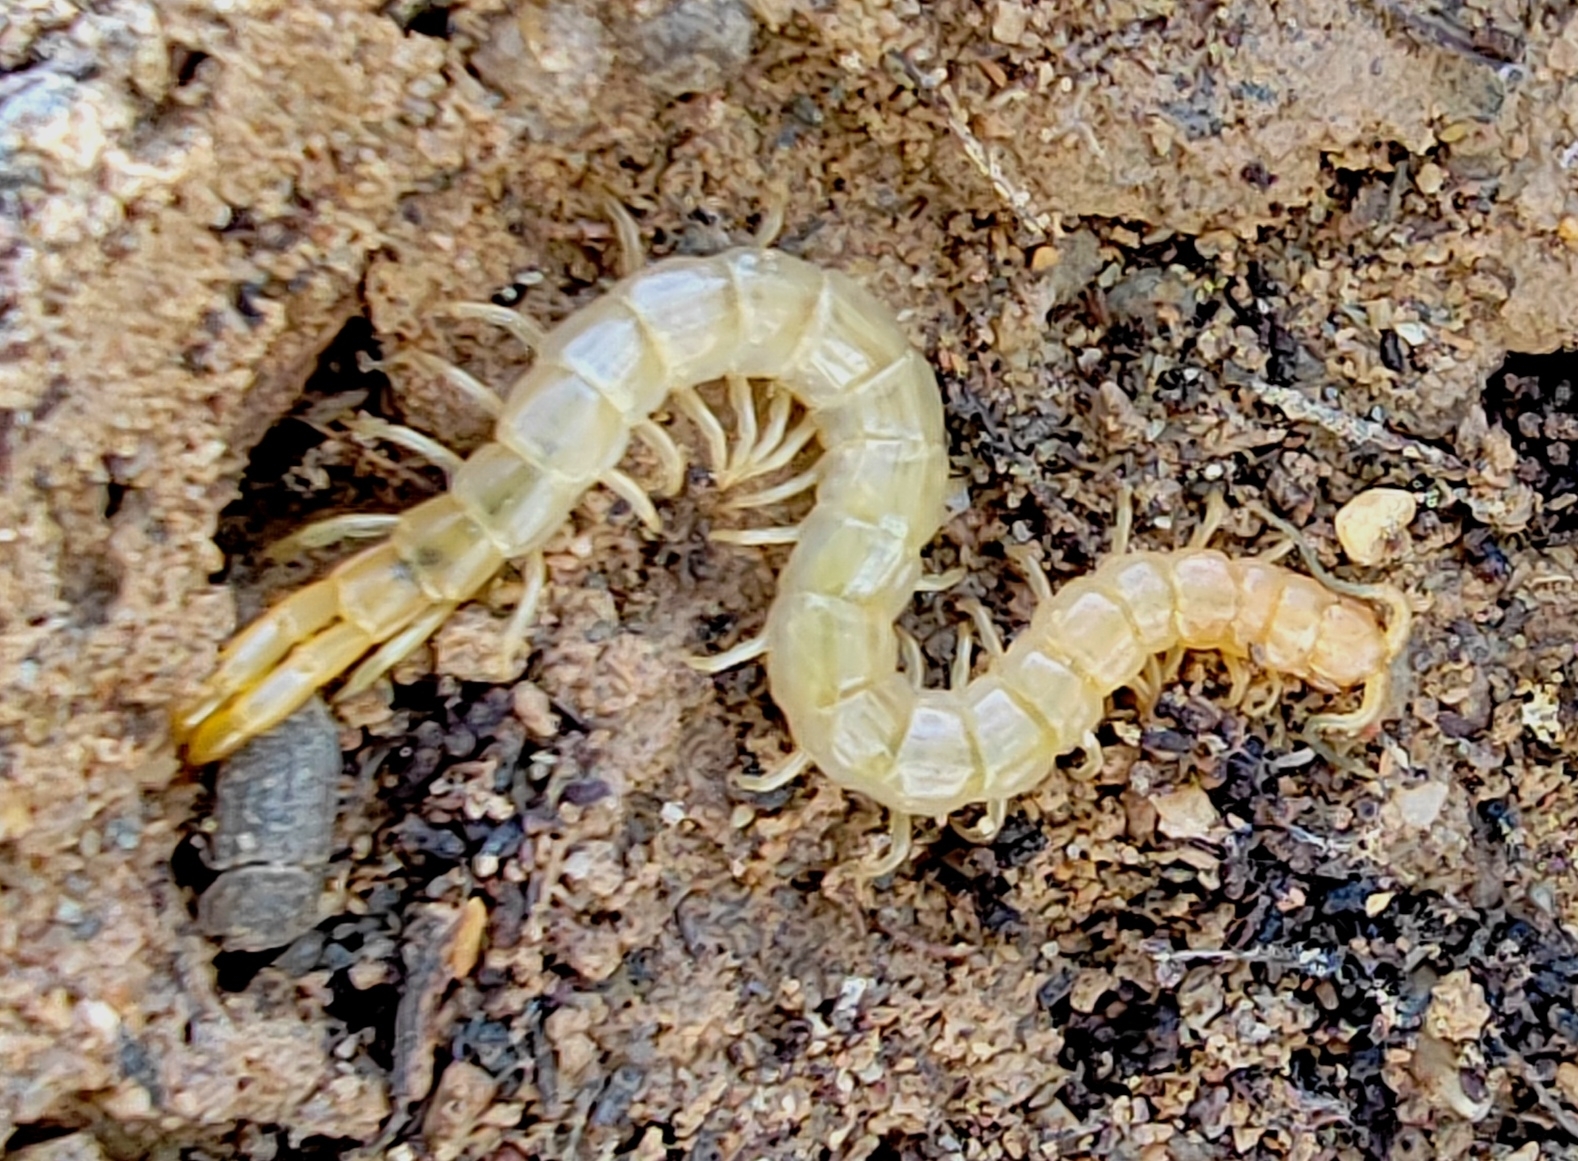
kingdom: Animalia
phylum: Arthropoda
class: Chilopoda
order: Scolopendromorpha
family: Scolopendridae
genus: Scolopendra
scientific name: Scolopendra canidens
